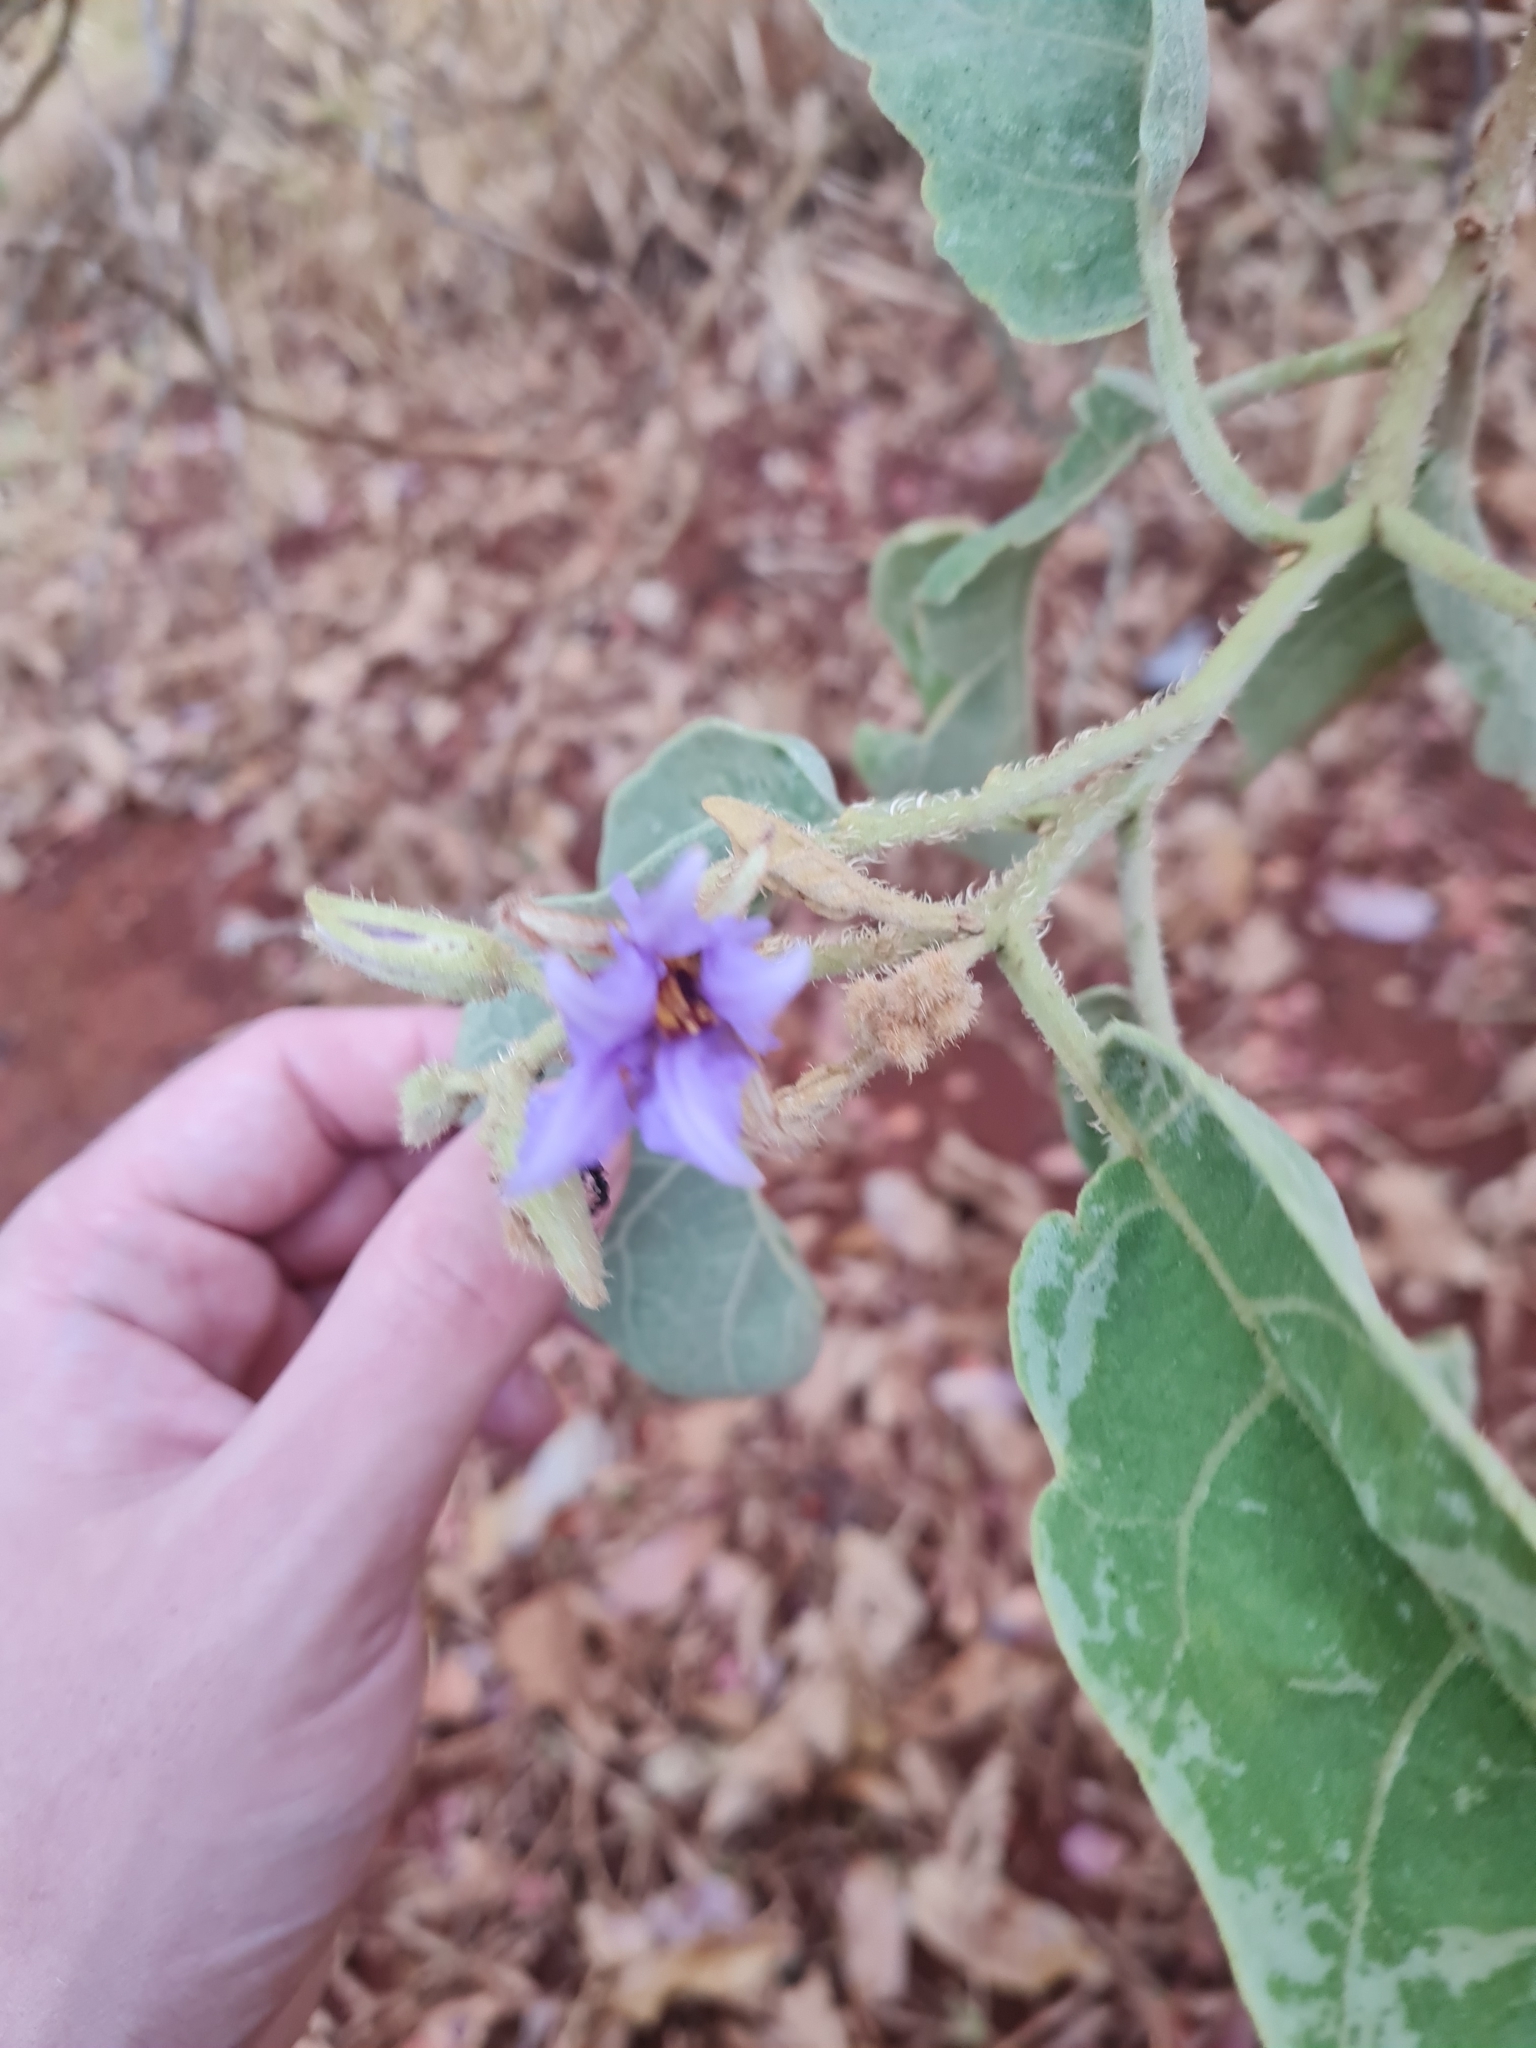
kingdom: Plantae
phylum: Tracheophyta
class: Magnoliopsida
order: Solanales
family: Solanaceae
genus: Solanum
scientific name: Solanum lycocarpum
